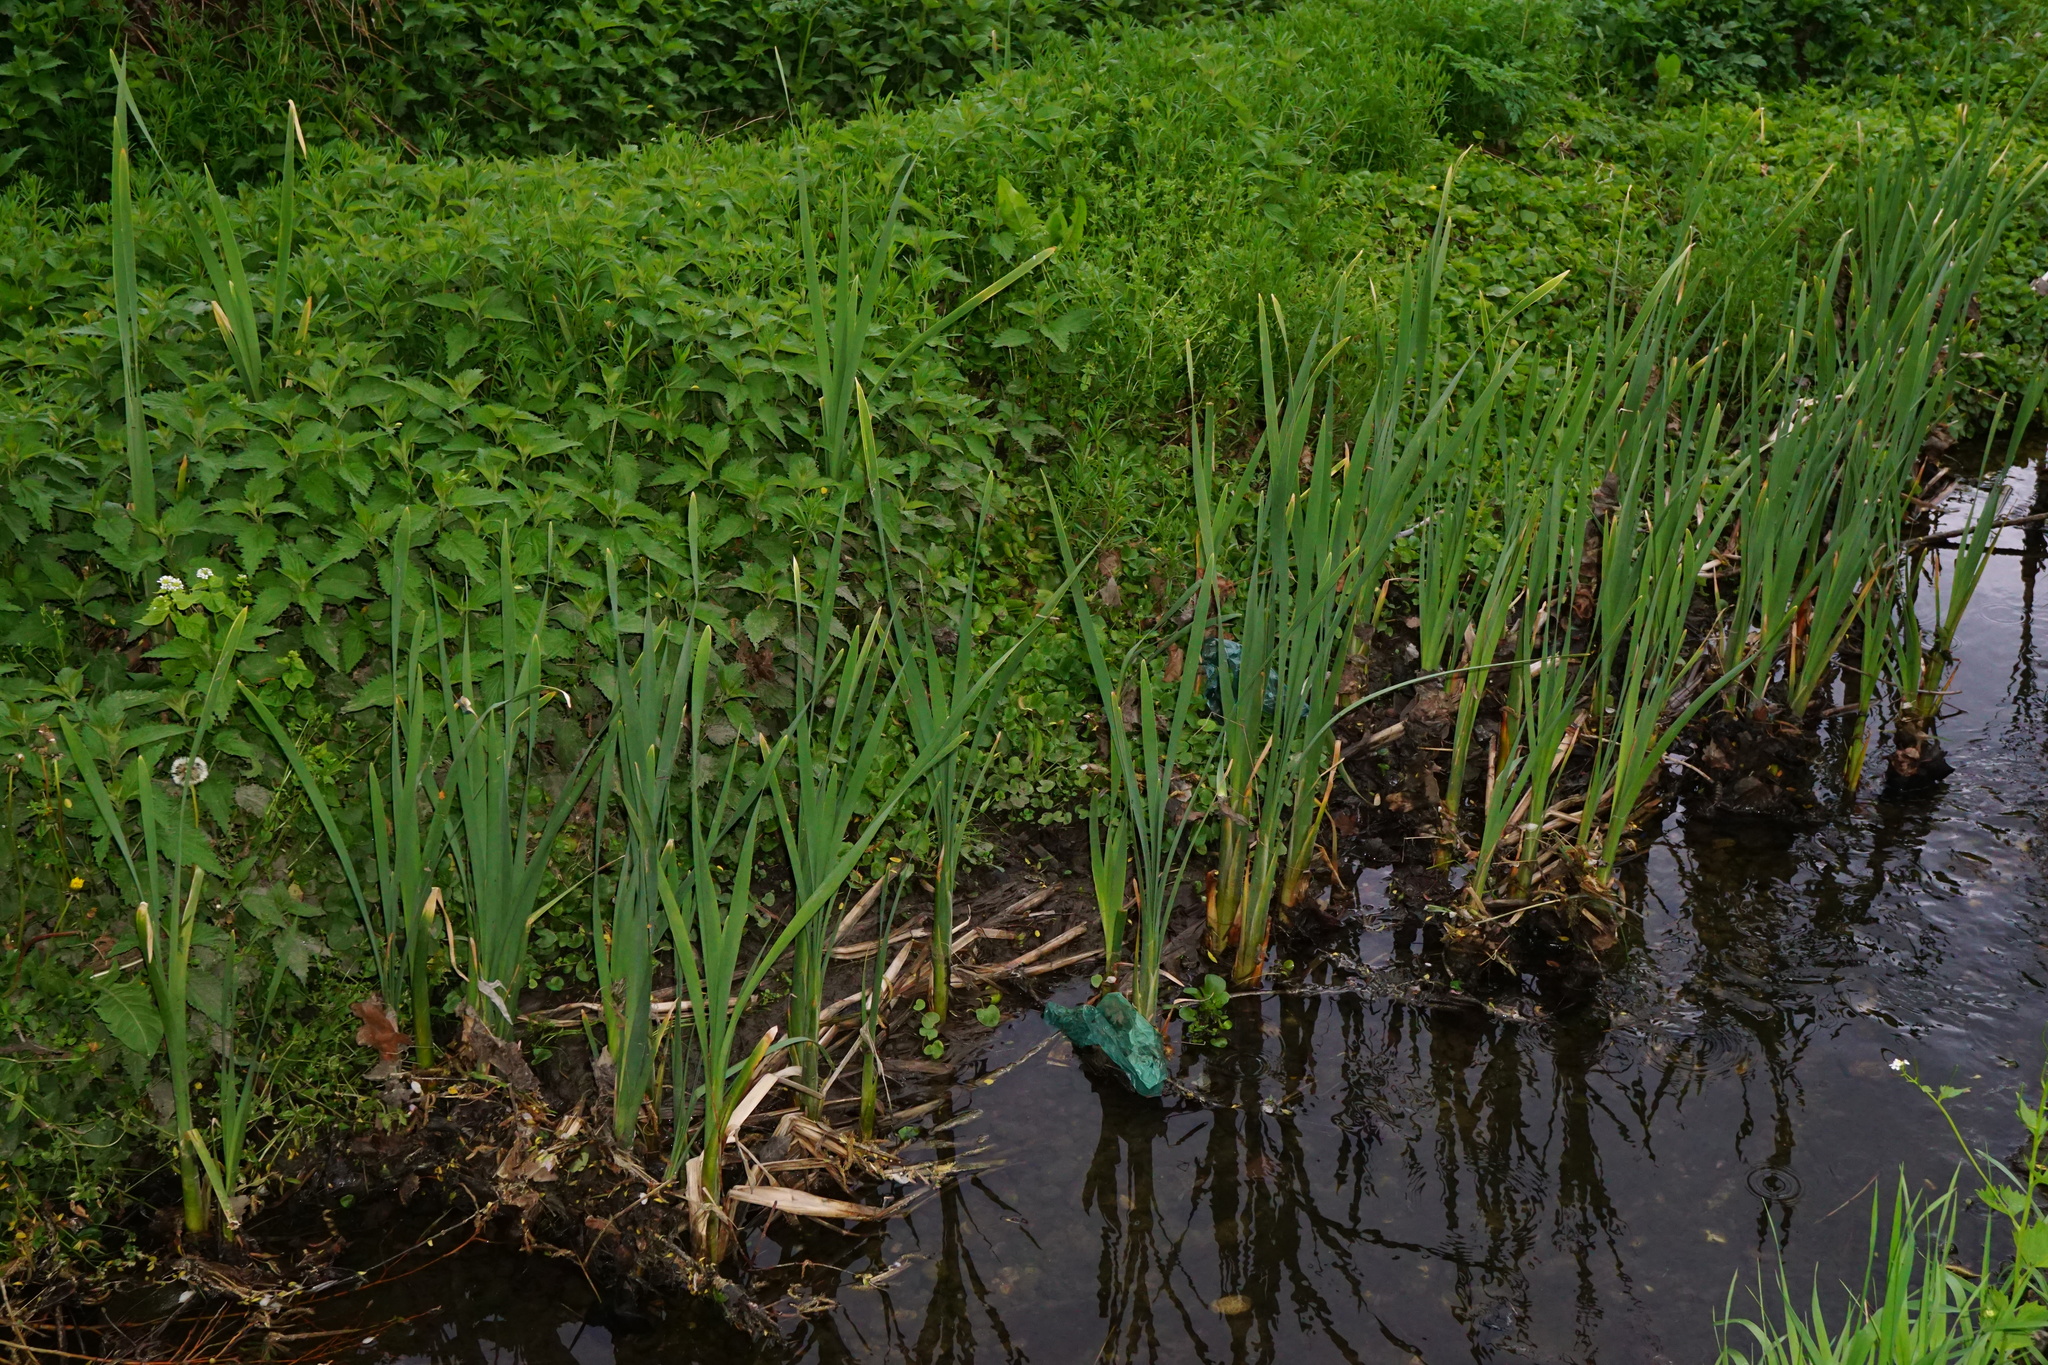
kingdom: Plantae
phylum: Tracheophyta
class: Liliopsida
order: Poales
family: Typhaceae
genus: Typha
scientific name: Typha latifolia
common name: Broadleaf cattail
